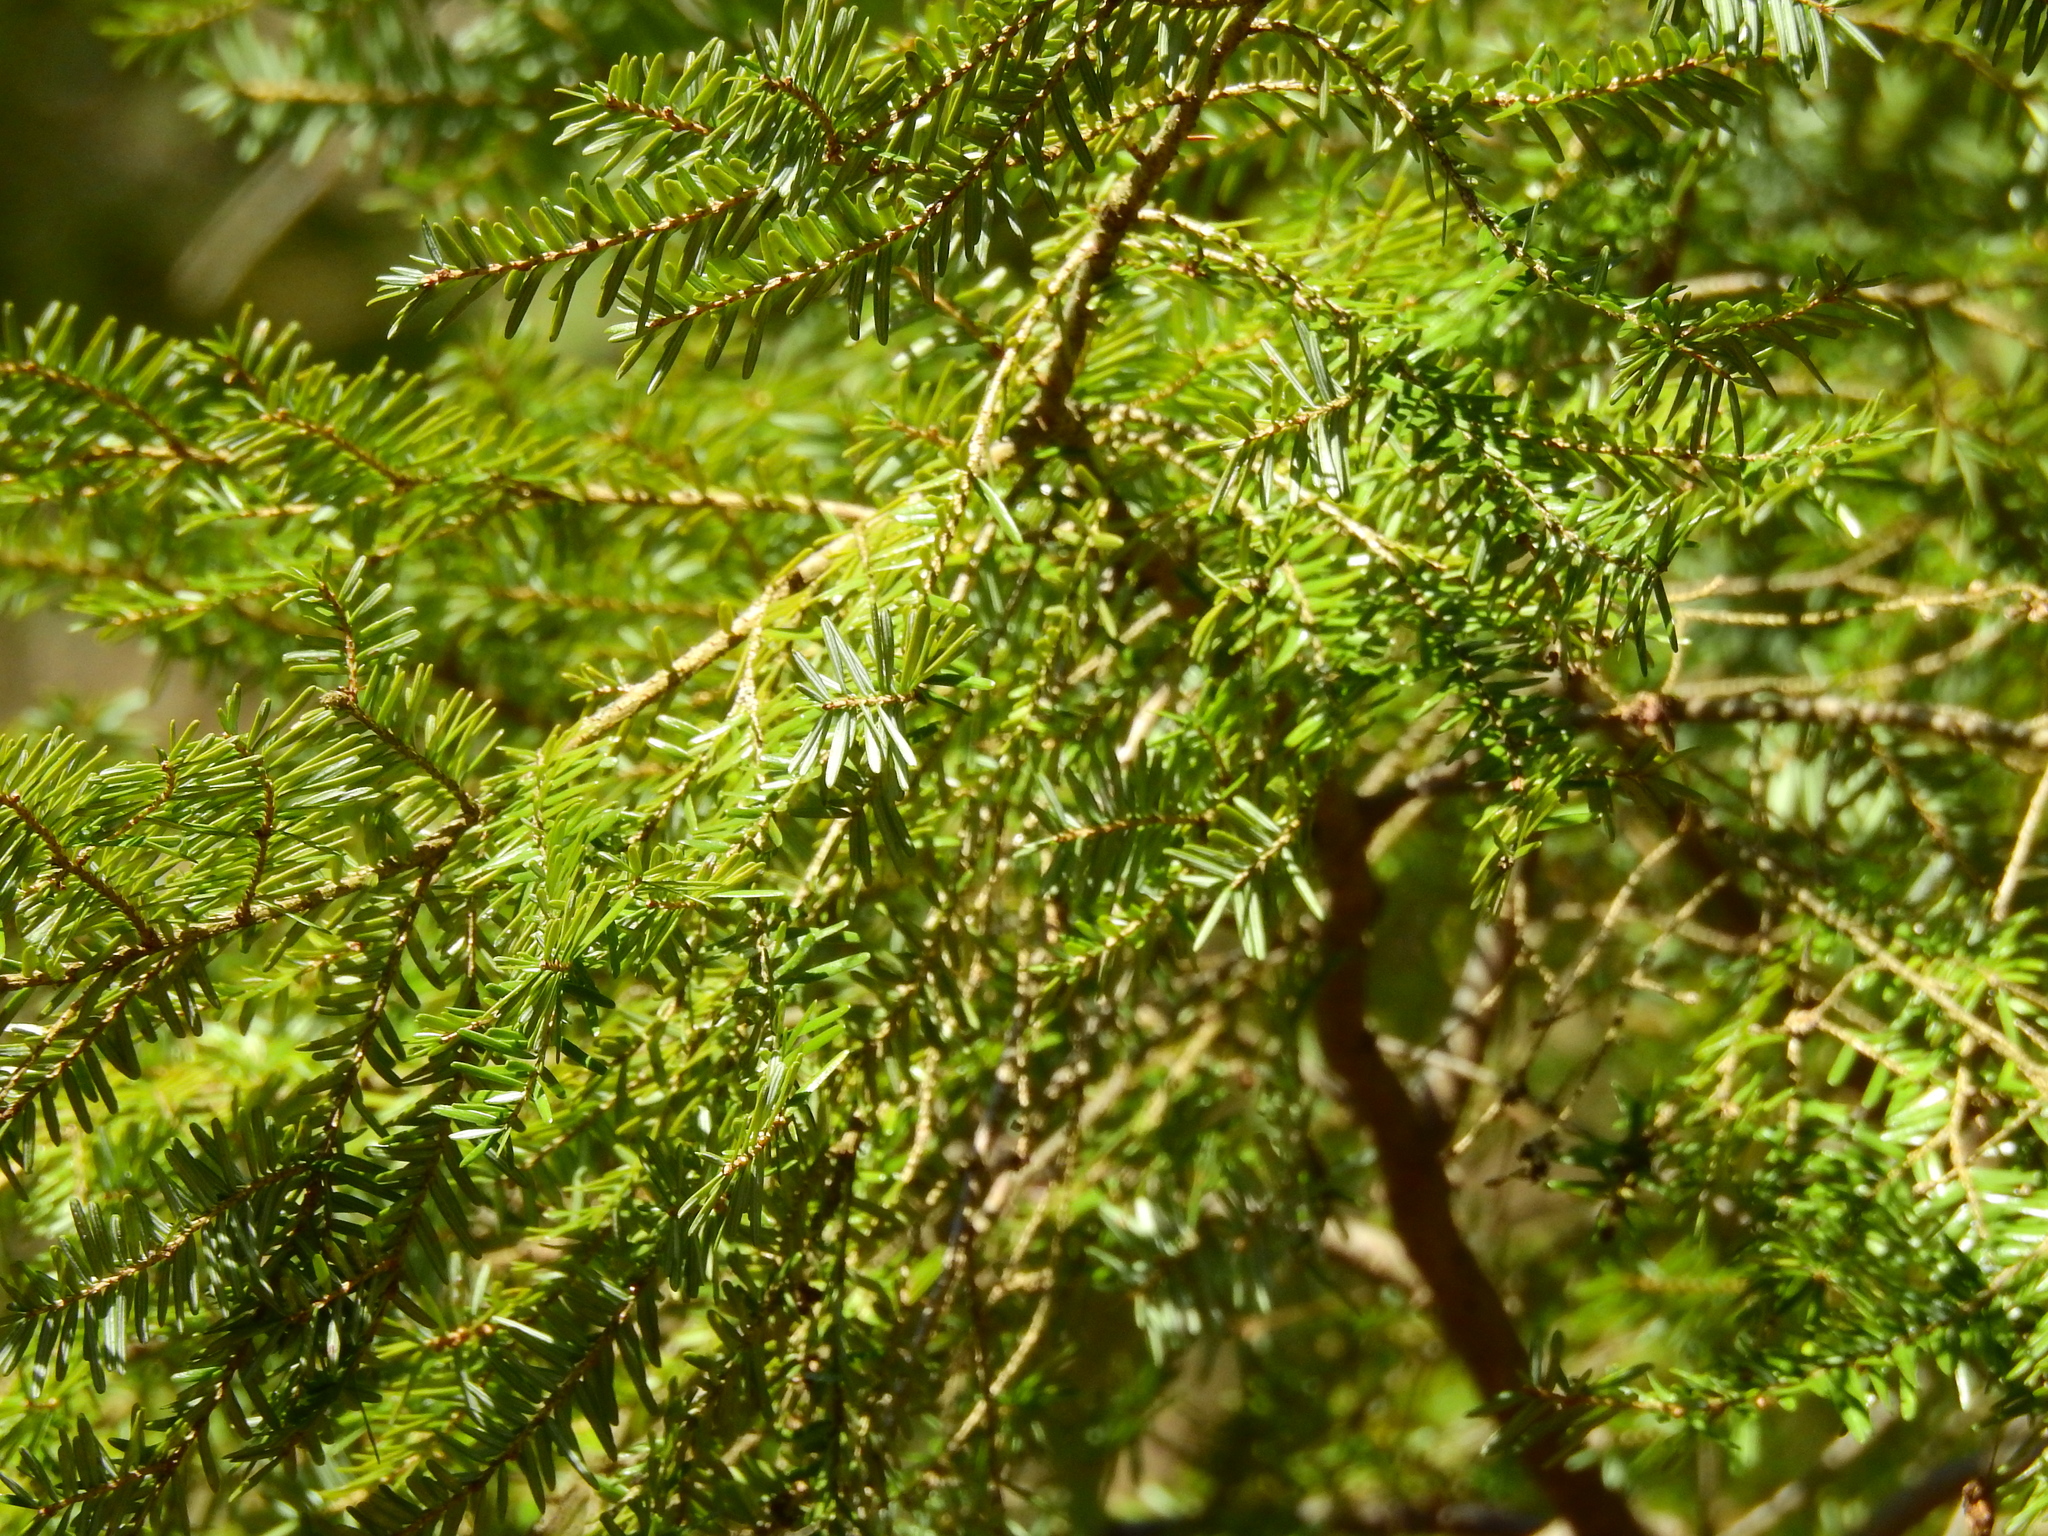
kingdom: Plantae
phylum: Tracheophyta
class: Pinopsida
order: Pinales
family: Pinaceae
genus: Tsuga
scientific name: Tsuga canadensis
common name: Eastern hemlock
